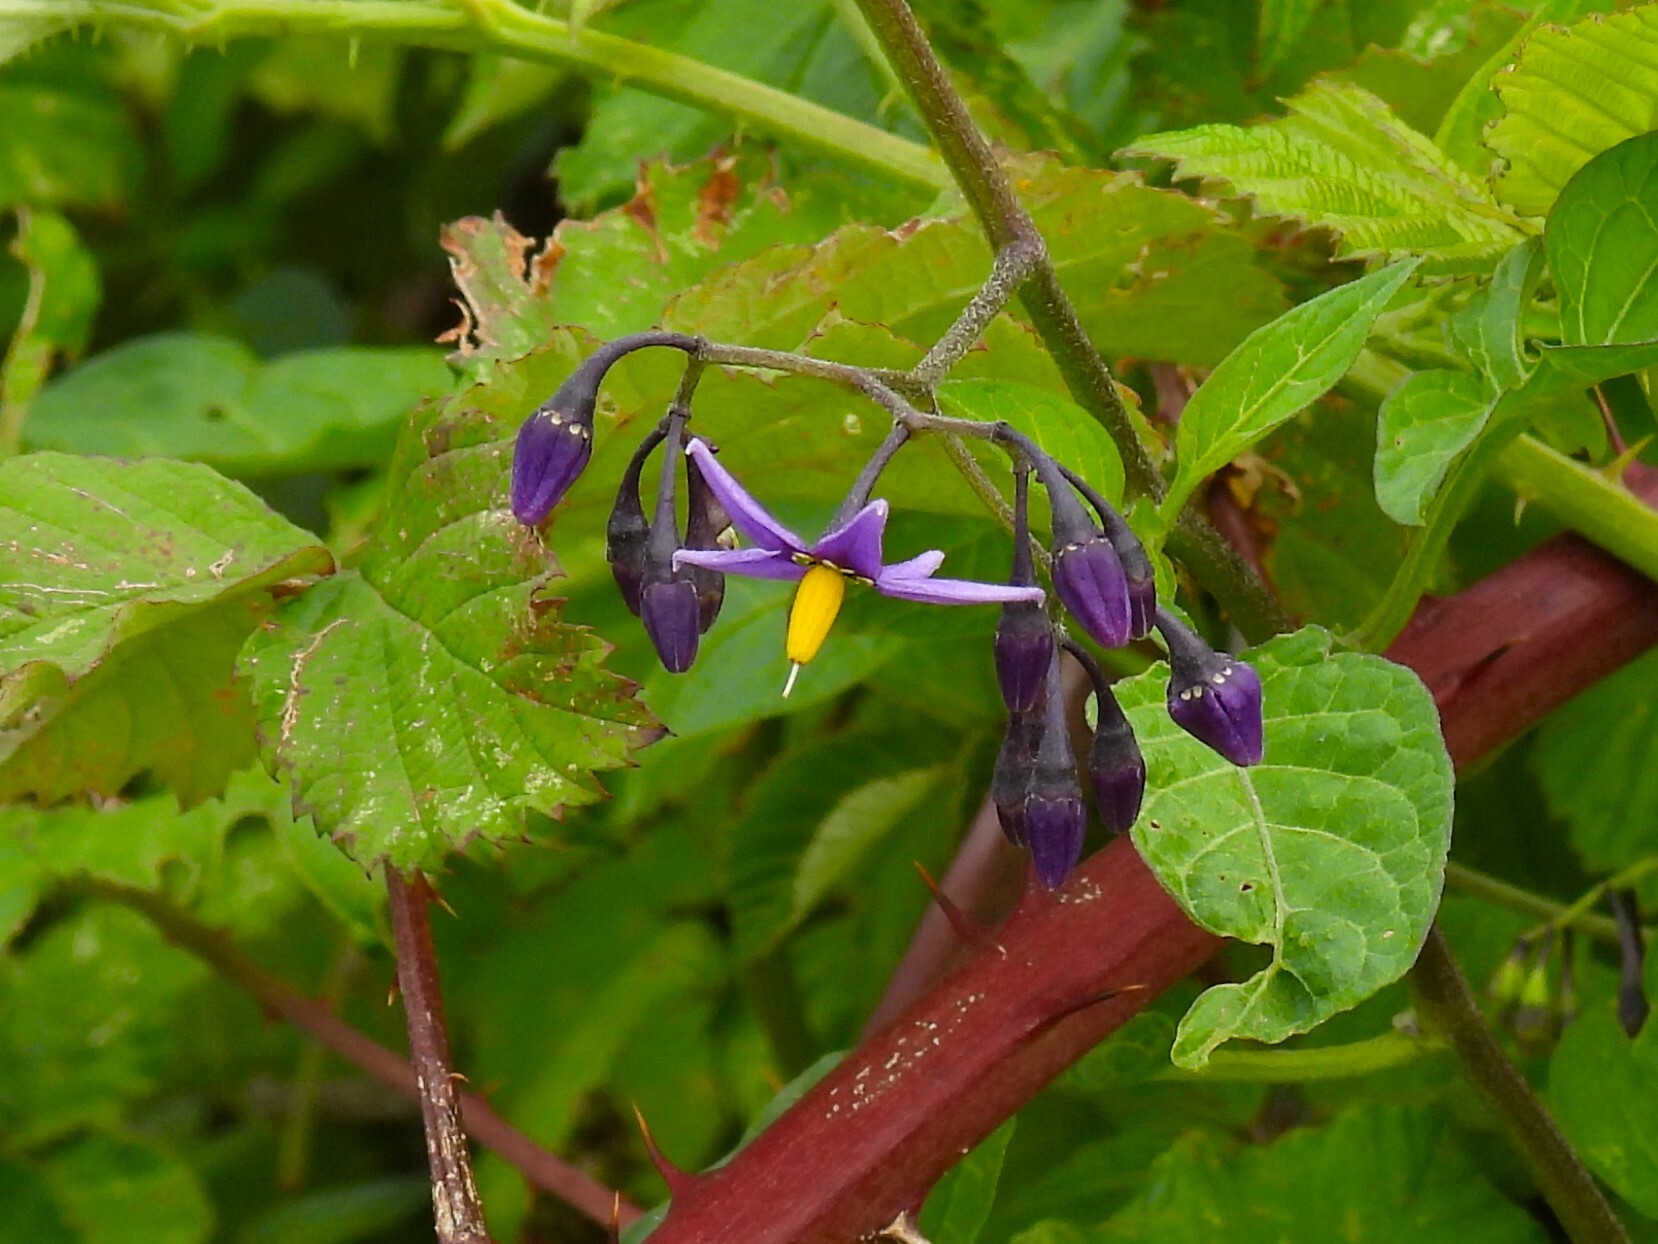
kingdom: Plantae
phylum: Tracheophyta
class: Magnoliopsida
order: Solanales
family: Solanaceae
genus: Solanum
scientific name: Solanum dulcamara
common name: Climbing nightshade
